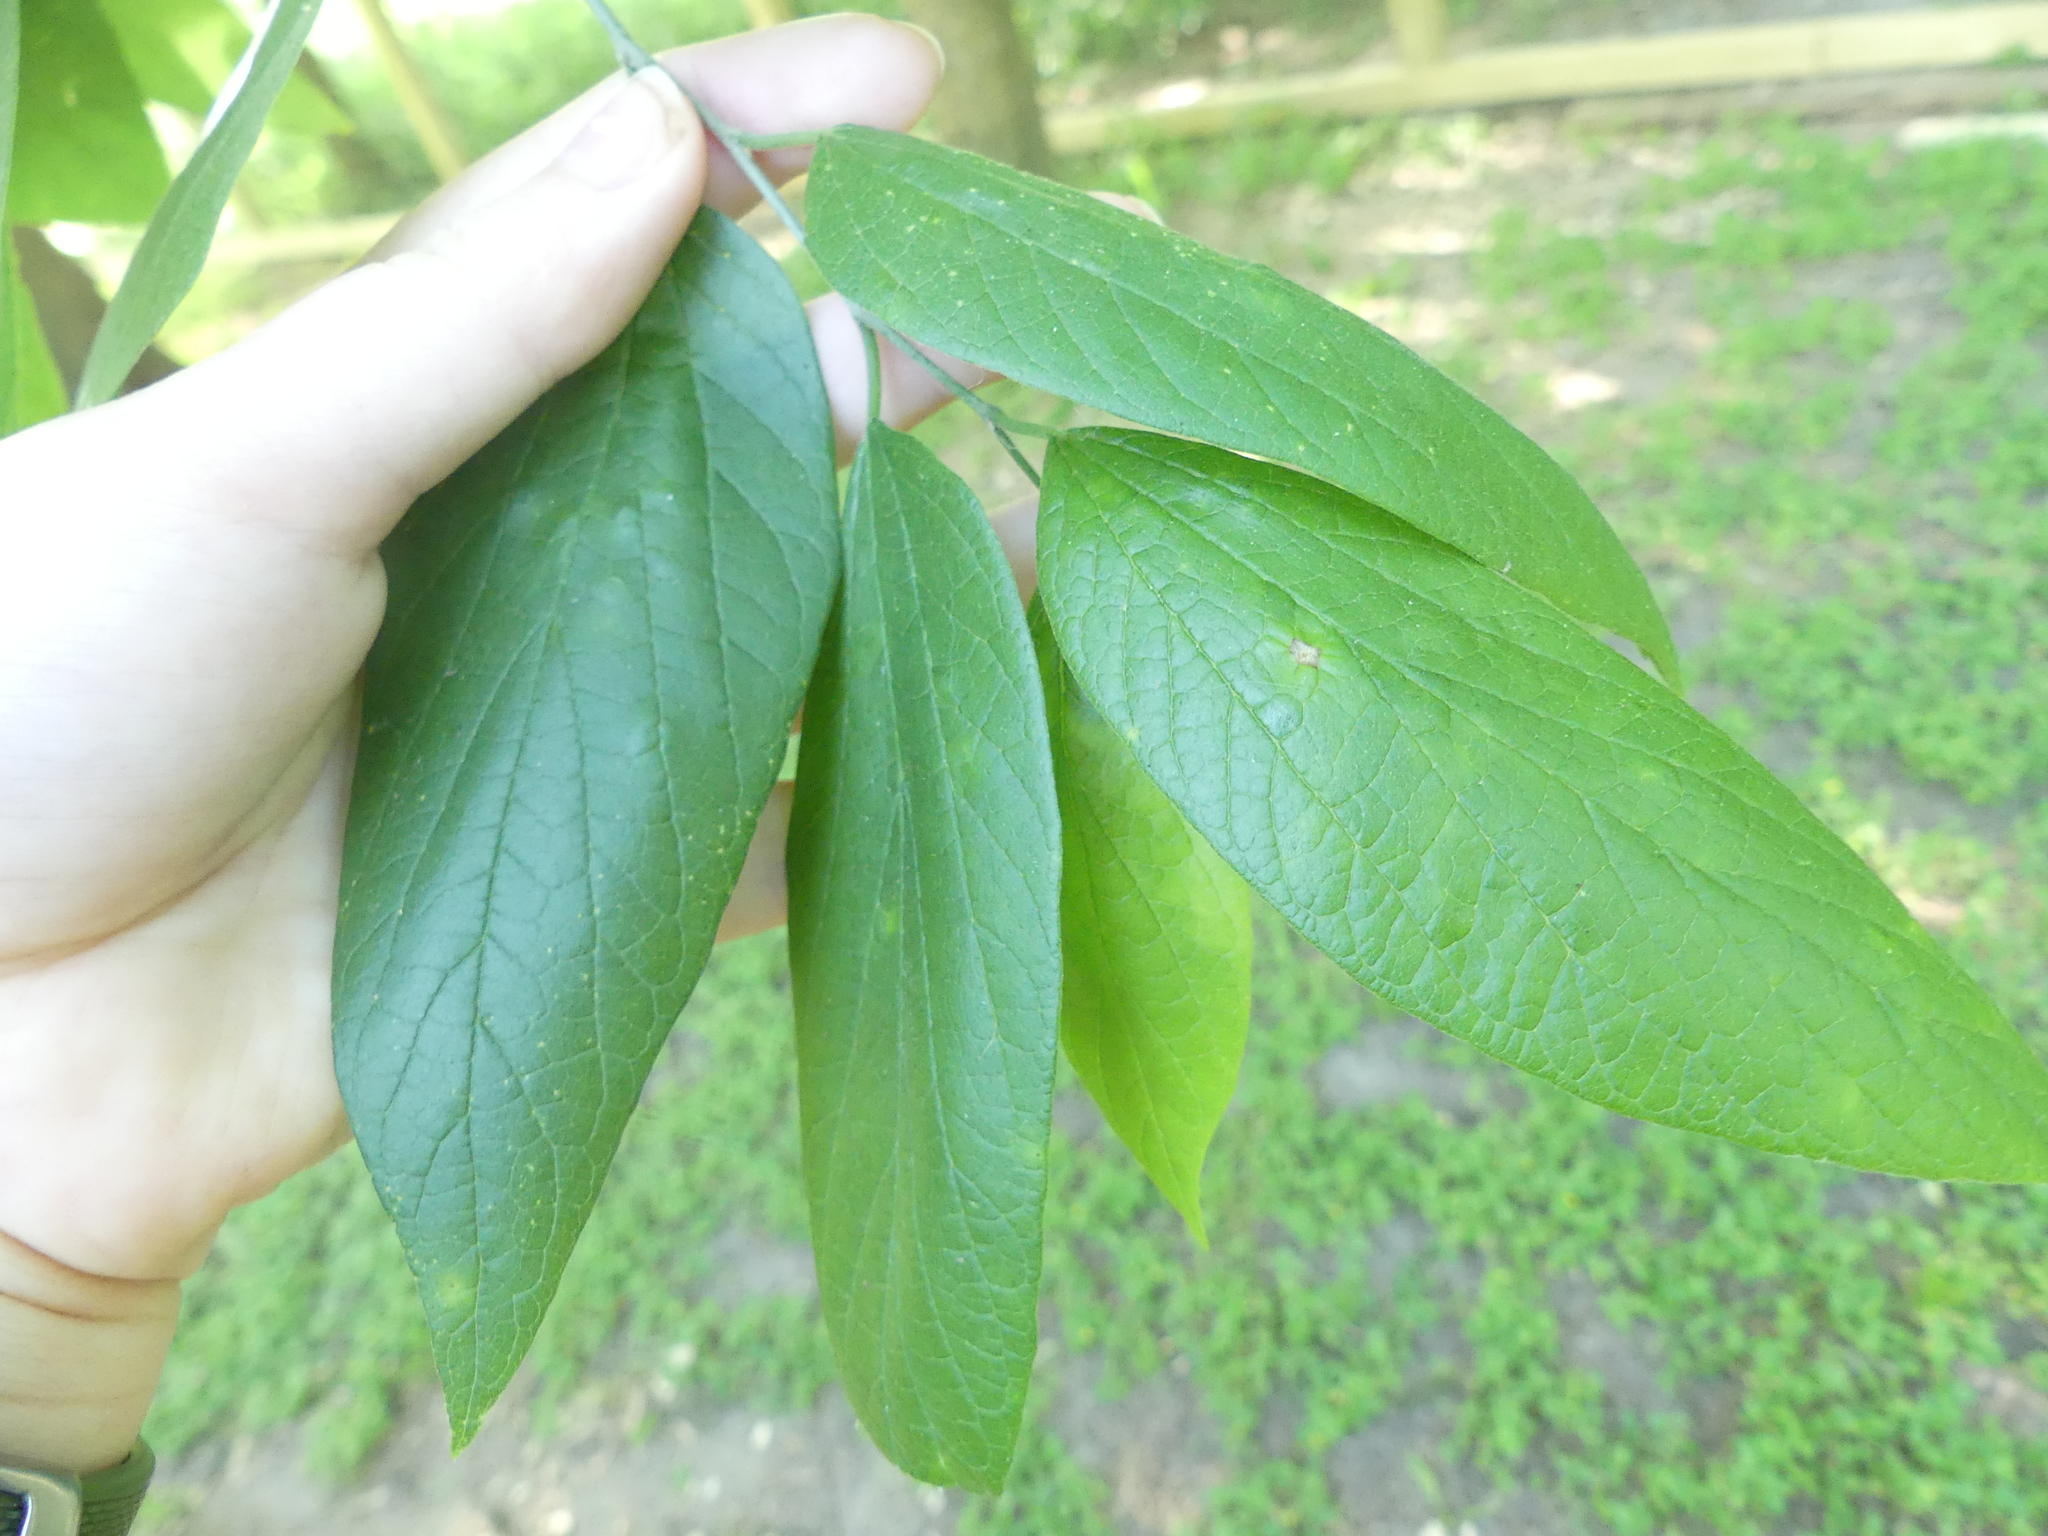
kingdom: Plantae
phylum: Tracheophyta
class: Magnoliopsida
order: Rosales
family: Cannabaceae
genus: Celtis
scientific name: Celtis laevigata
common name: Sugarberry
